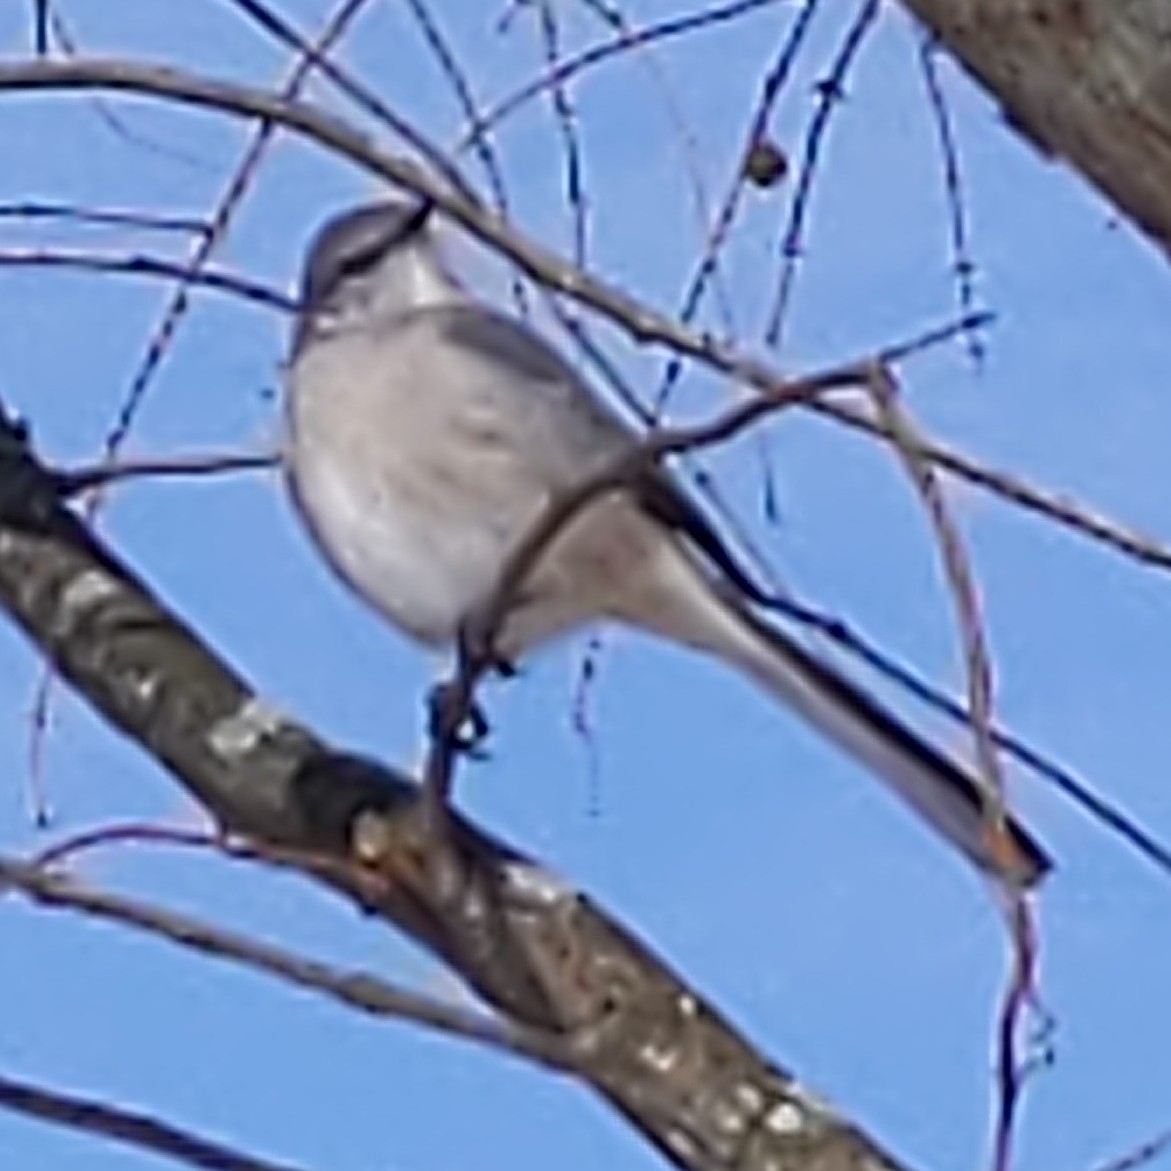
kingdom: Animalia
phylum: Chordata
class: Aves
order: Passeriformes
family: Mimidae
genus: Mimus
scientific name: Mimus polyglottos
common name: Northern mockingbird
